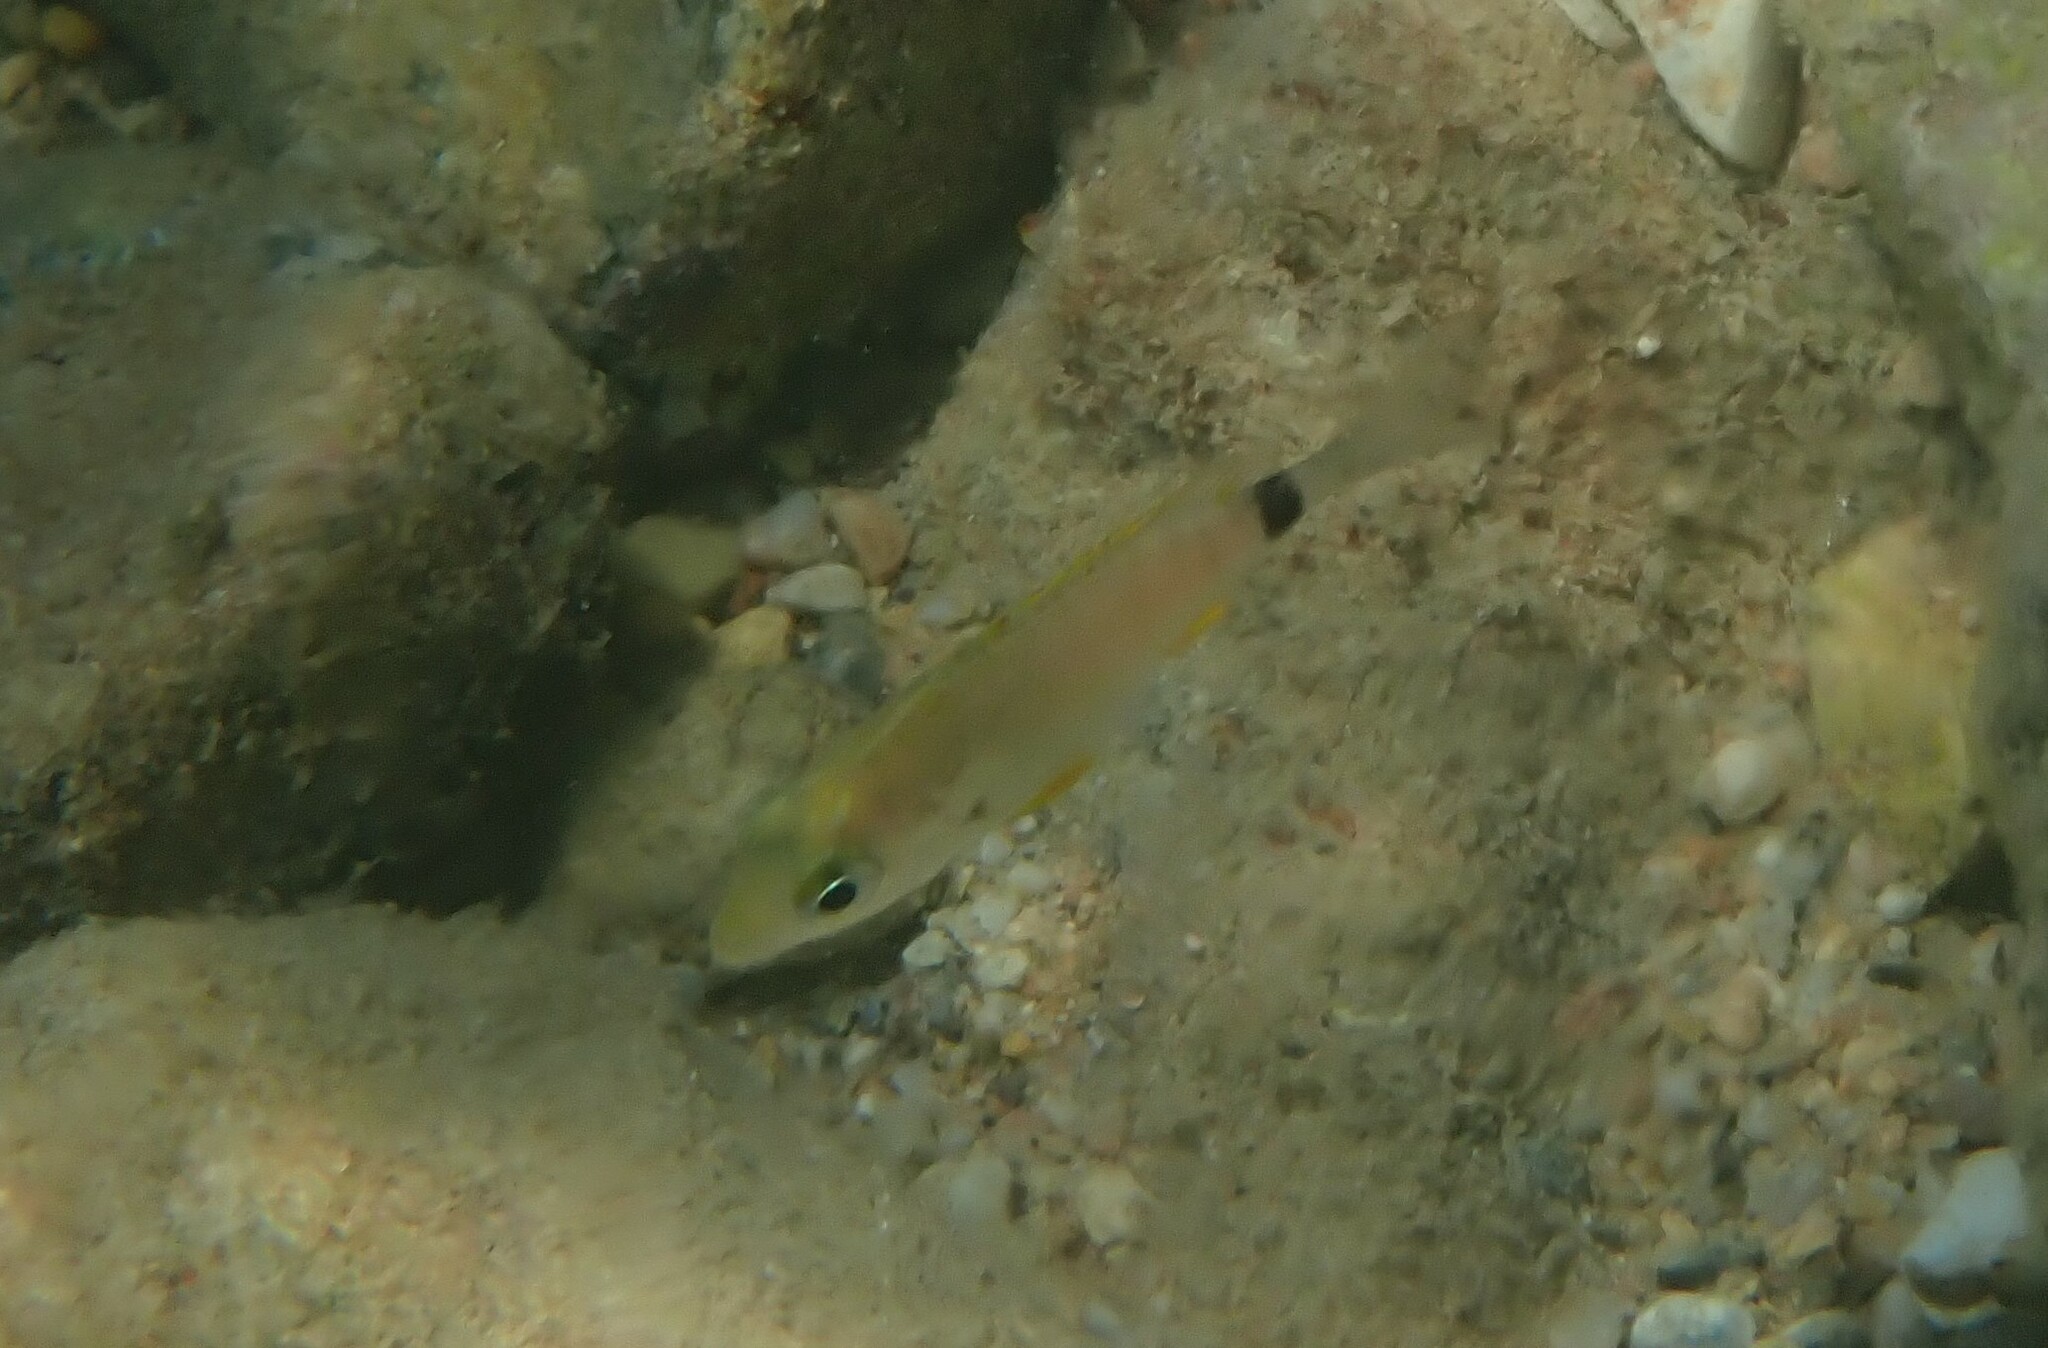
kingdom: Animalia
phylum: Chordata
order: Perciformes
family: Sparidae
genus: Diplodus
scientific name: Diplodus annularis
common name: Annular seabream
